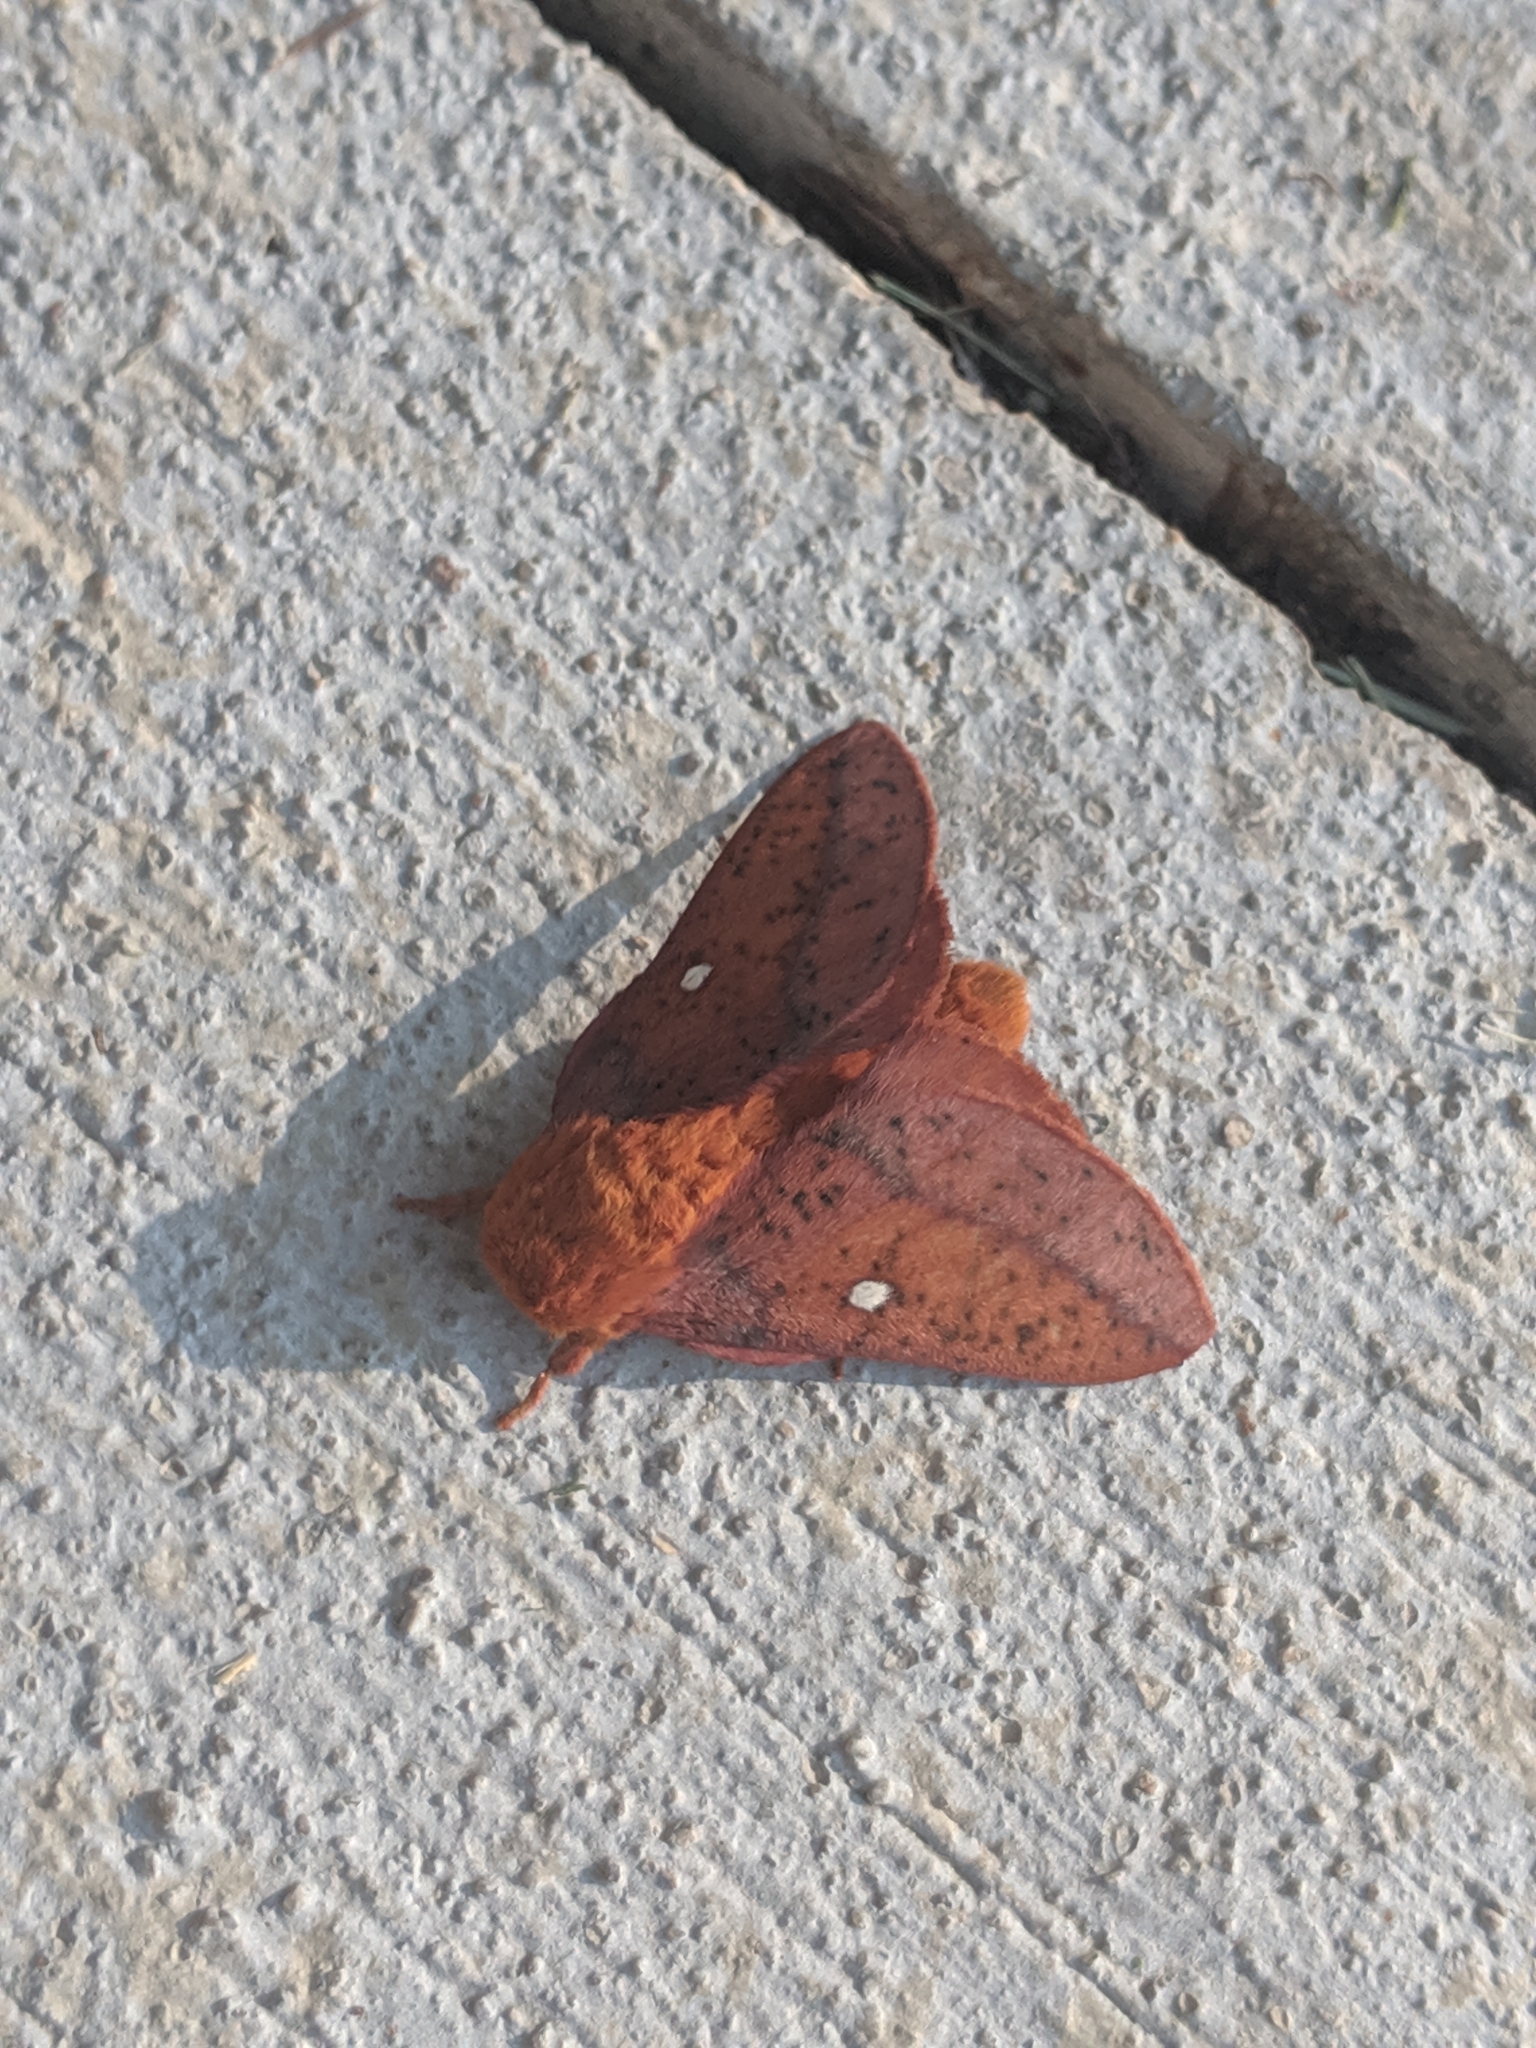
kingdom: Animalia
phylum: Arthropoda
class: Insecta
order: Lepidoptera
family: Saturniidae
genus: Anisota
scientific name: Anisota stigma
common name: Spiny oakworm moth
